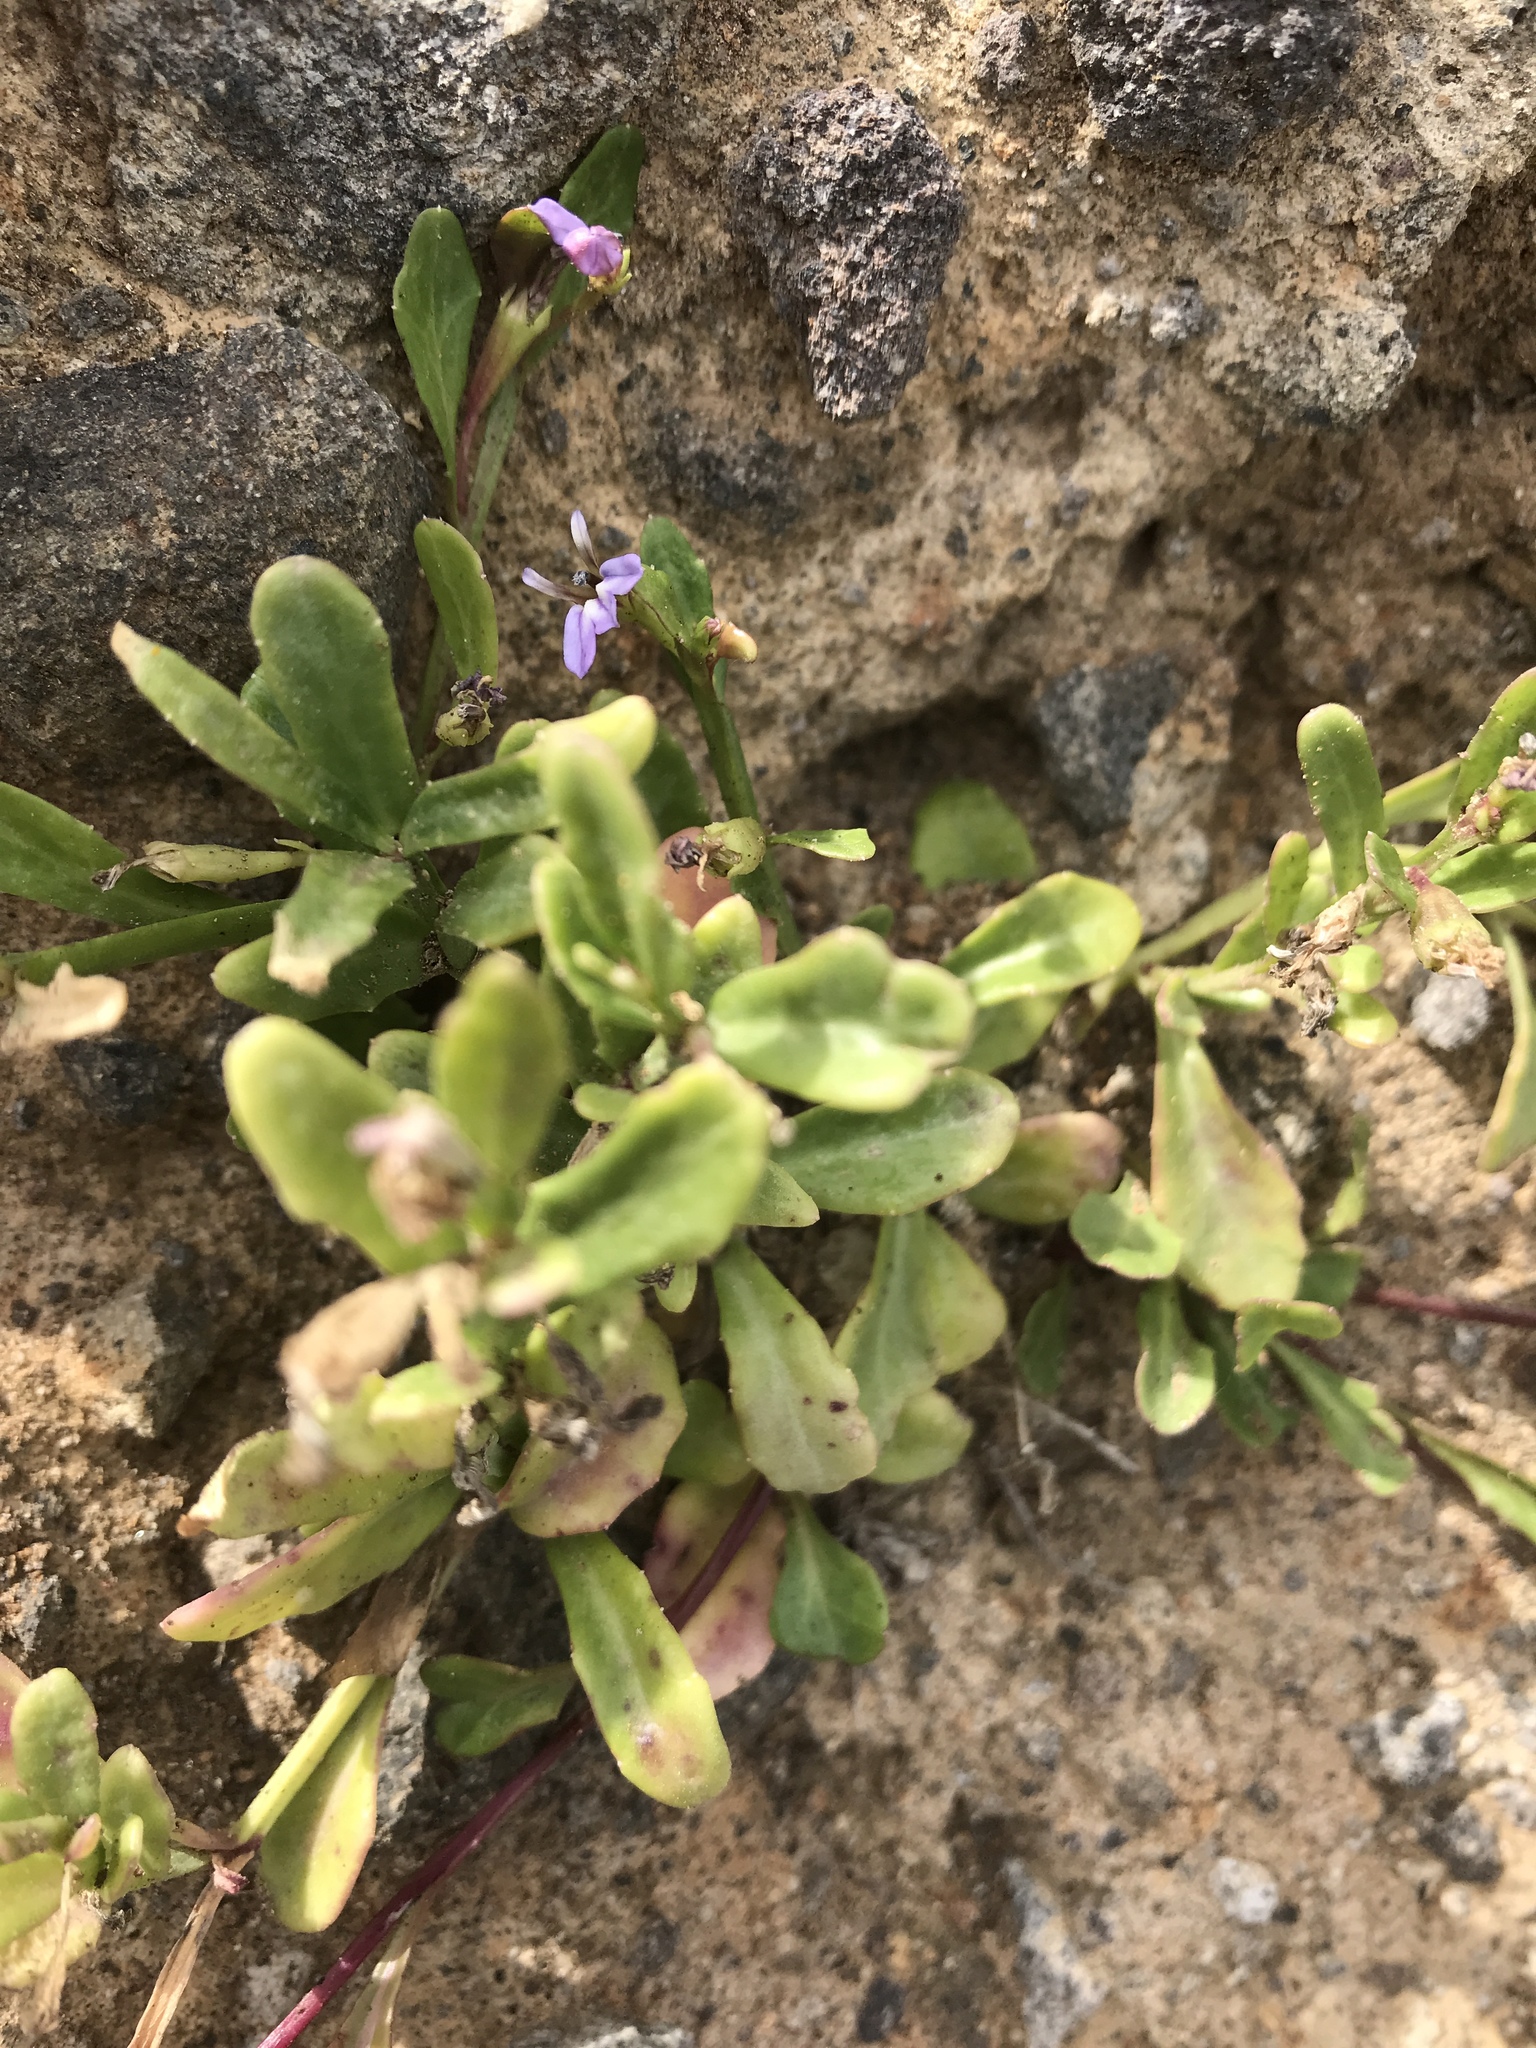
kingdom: Plantae
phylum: Tracheophyta
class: Magnoliopsida
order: Asterales
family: Campanulaceae
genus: Lobelia
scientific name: Lobelia anceps
